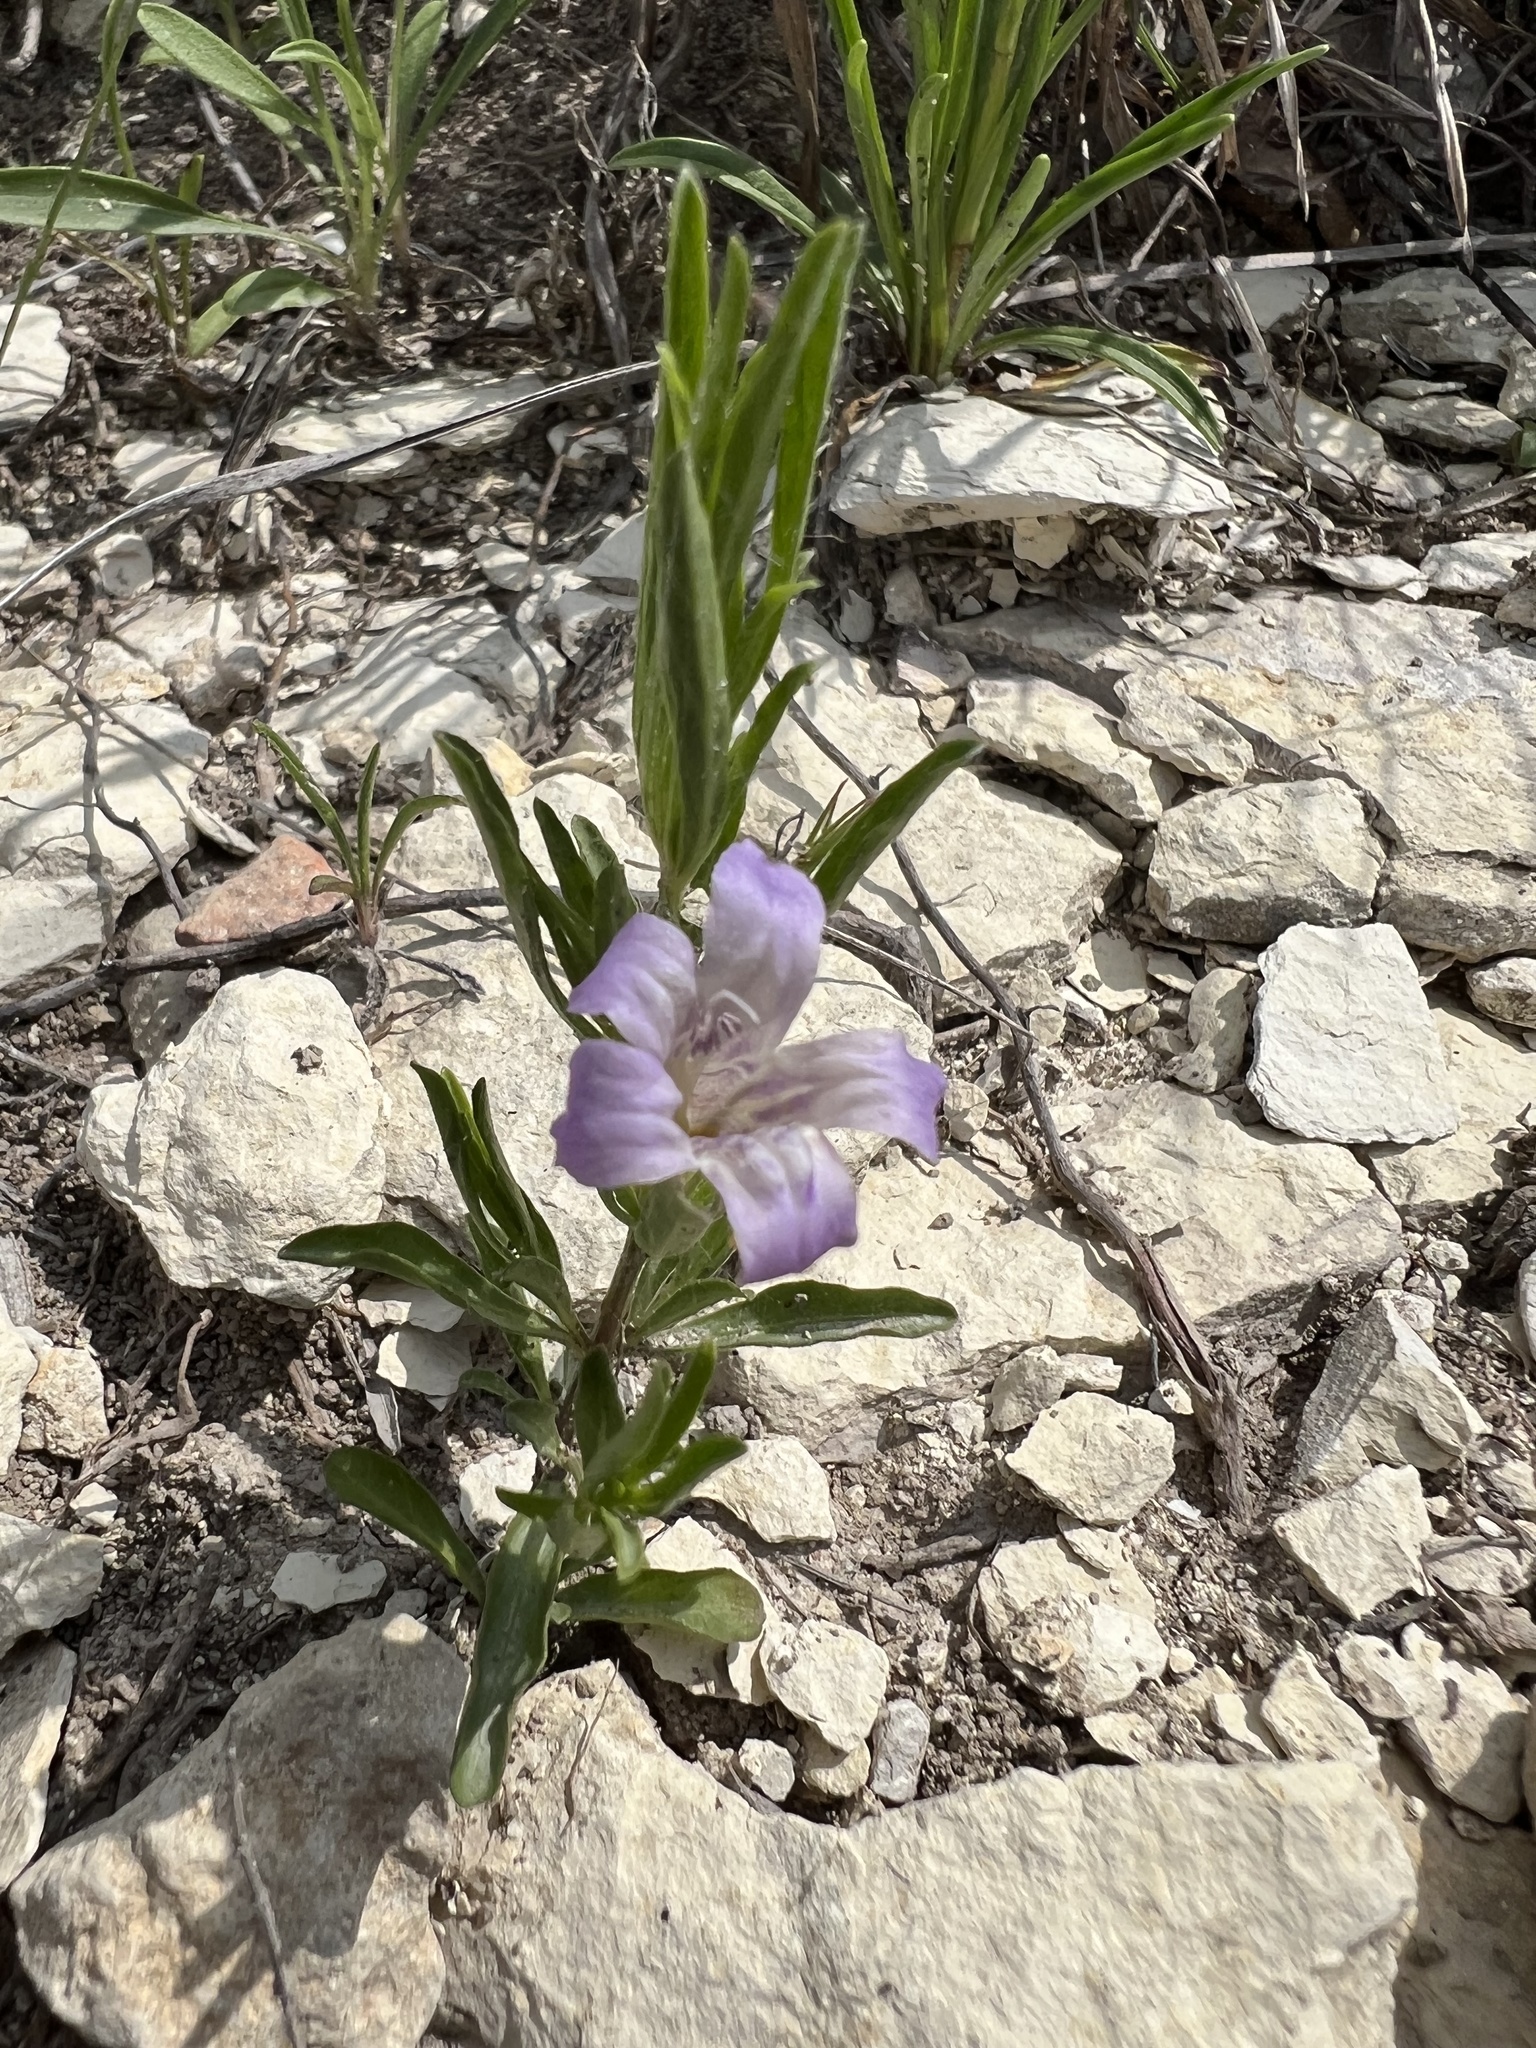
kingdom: Plantae
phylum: Tracheophyta
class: Magnoliopsida
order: Lamiales
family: Acanthaceae
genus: Dyschoriste
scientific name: Dyschoriste linearis
